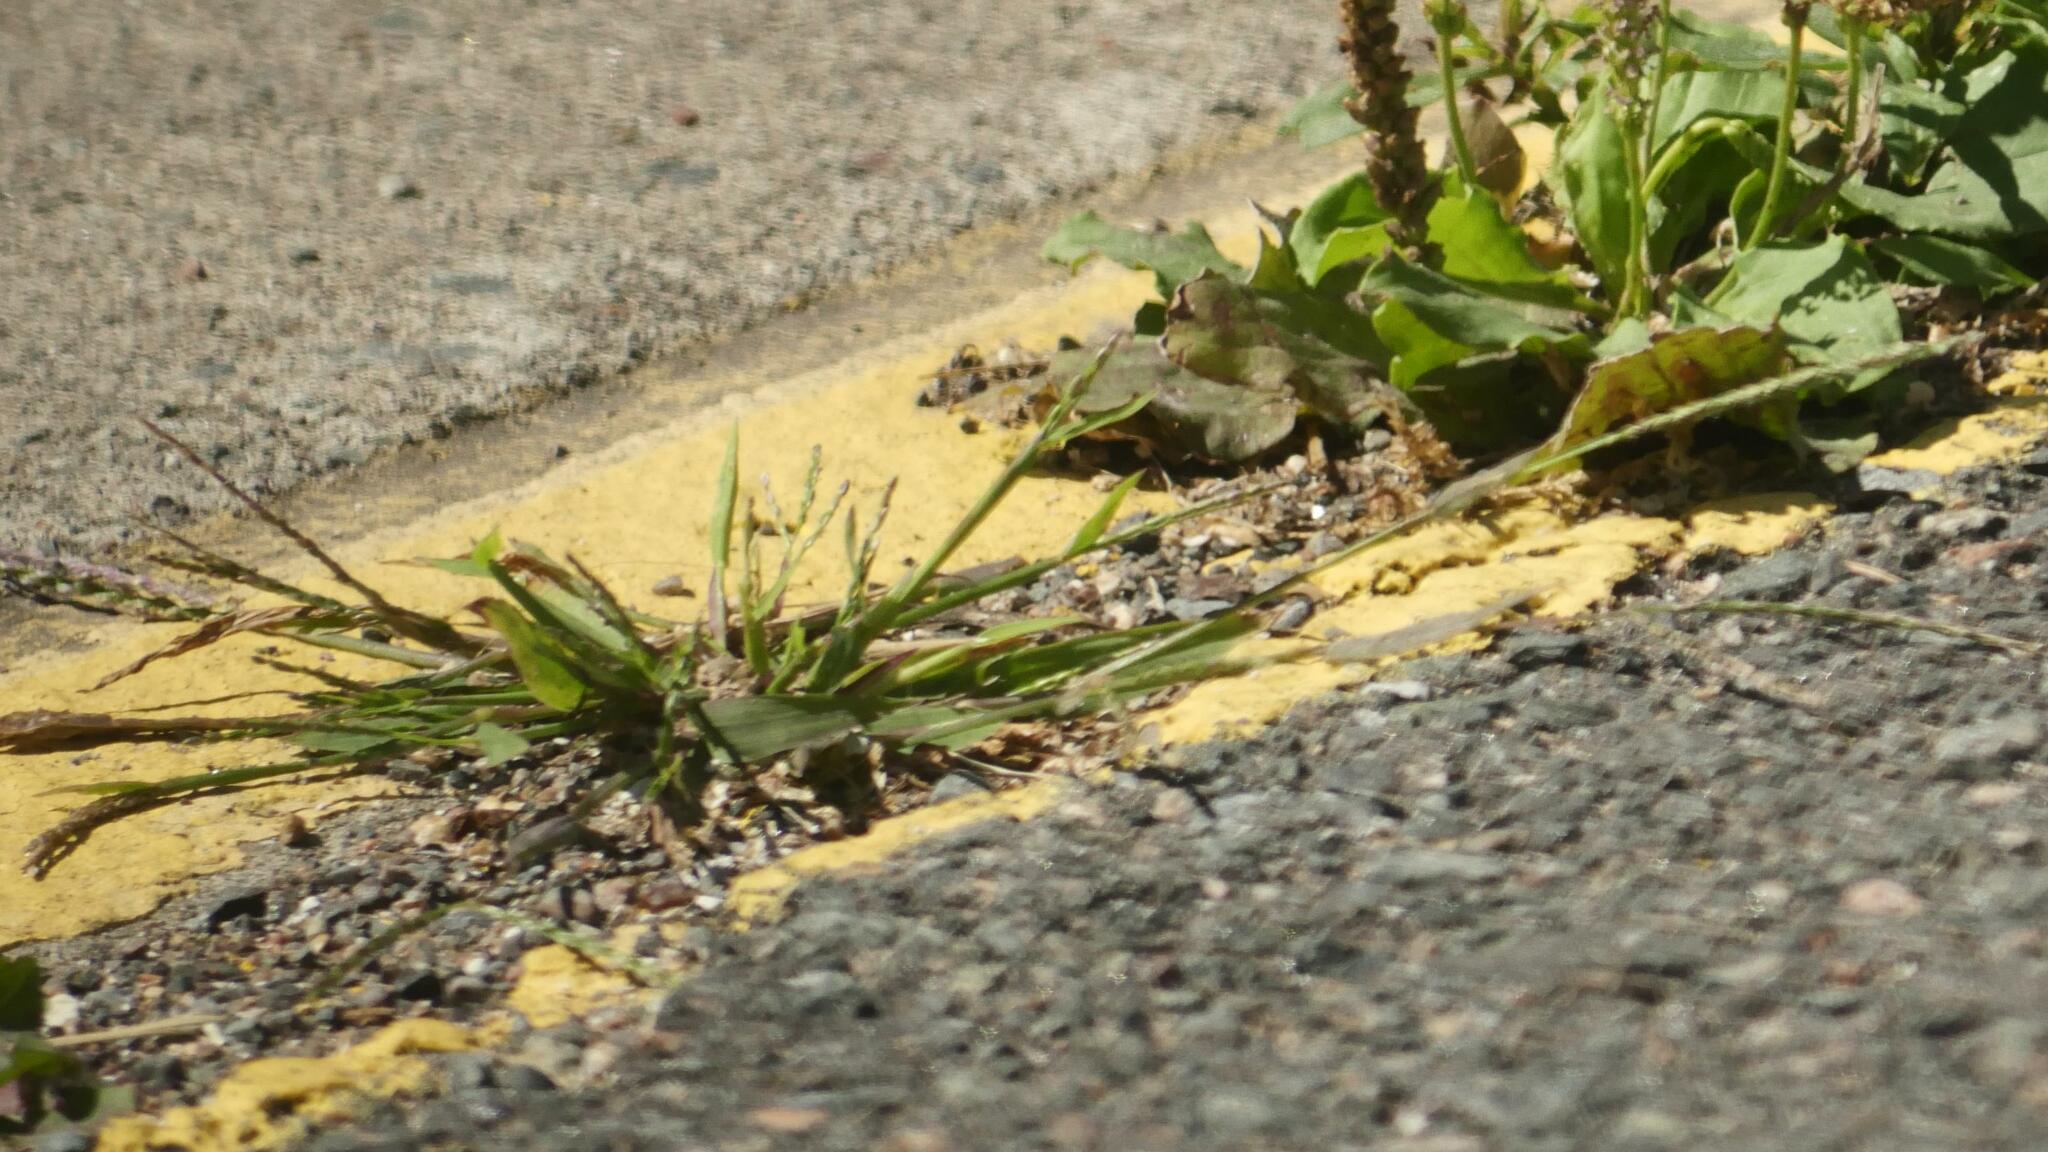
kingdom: Plantae
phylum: Tracheophyta
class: Liliopsida
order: Poales
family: Poaceae
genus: Digitaria
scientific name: Digitaria ischaemum
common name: Smooth crabgrass
